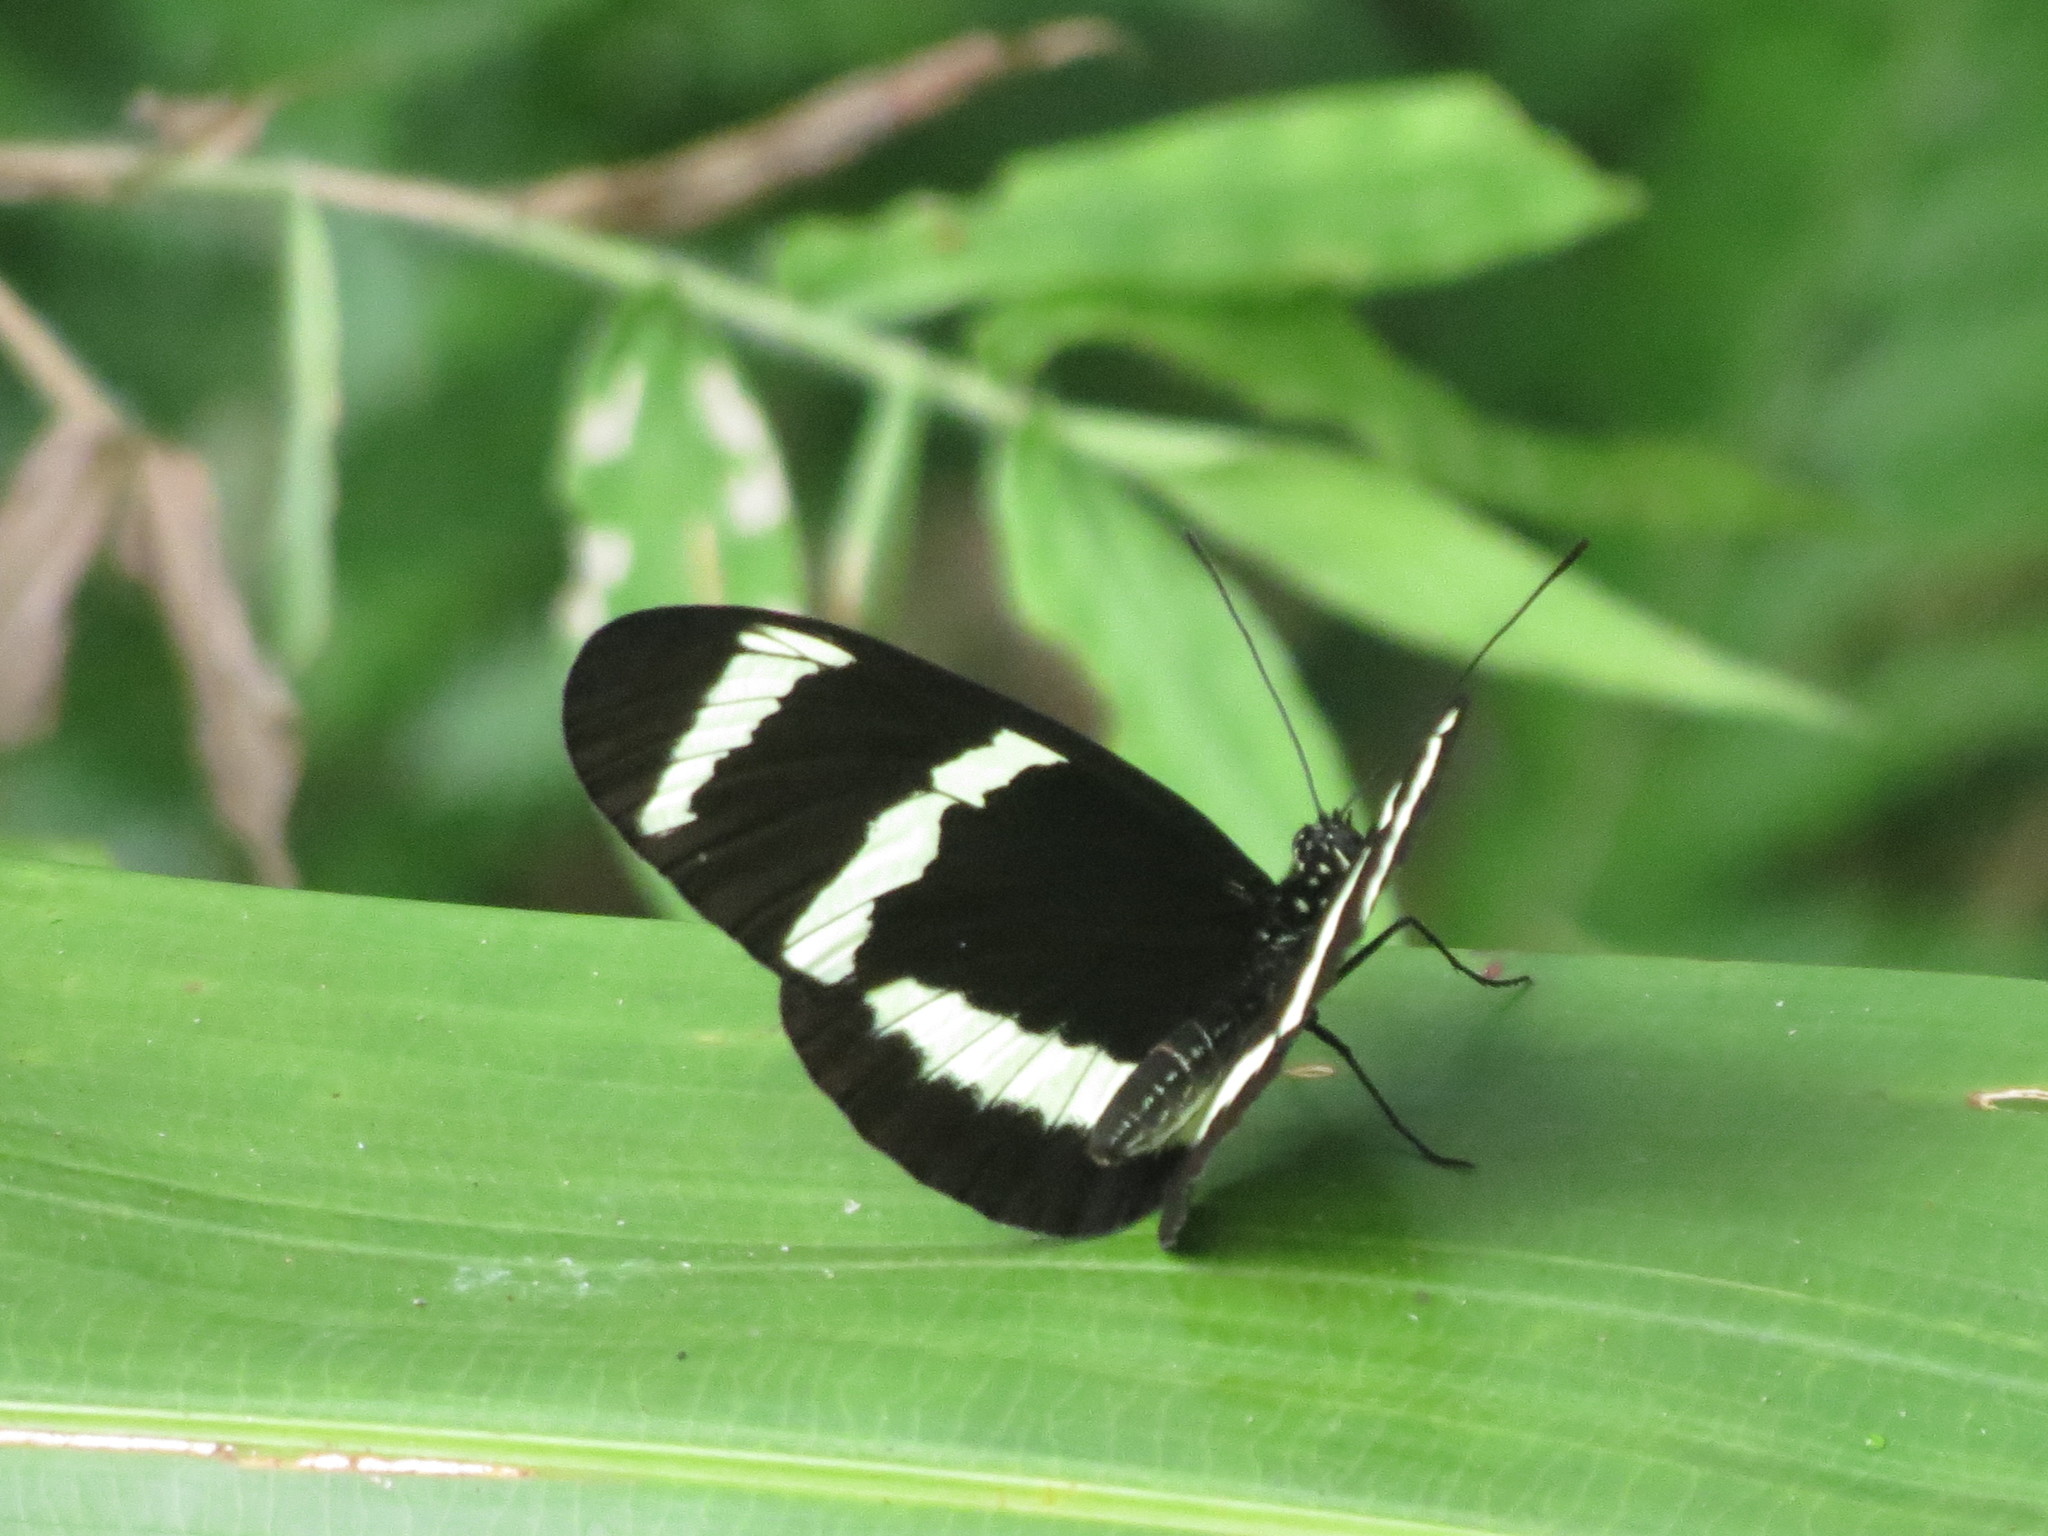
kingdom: Animalia
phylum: Arthropoda
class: Insecta
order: Lepidoptera
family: Nymphalidae
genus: Heliconius
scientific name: Heliconius hewitsoni
